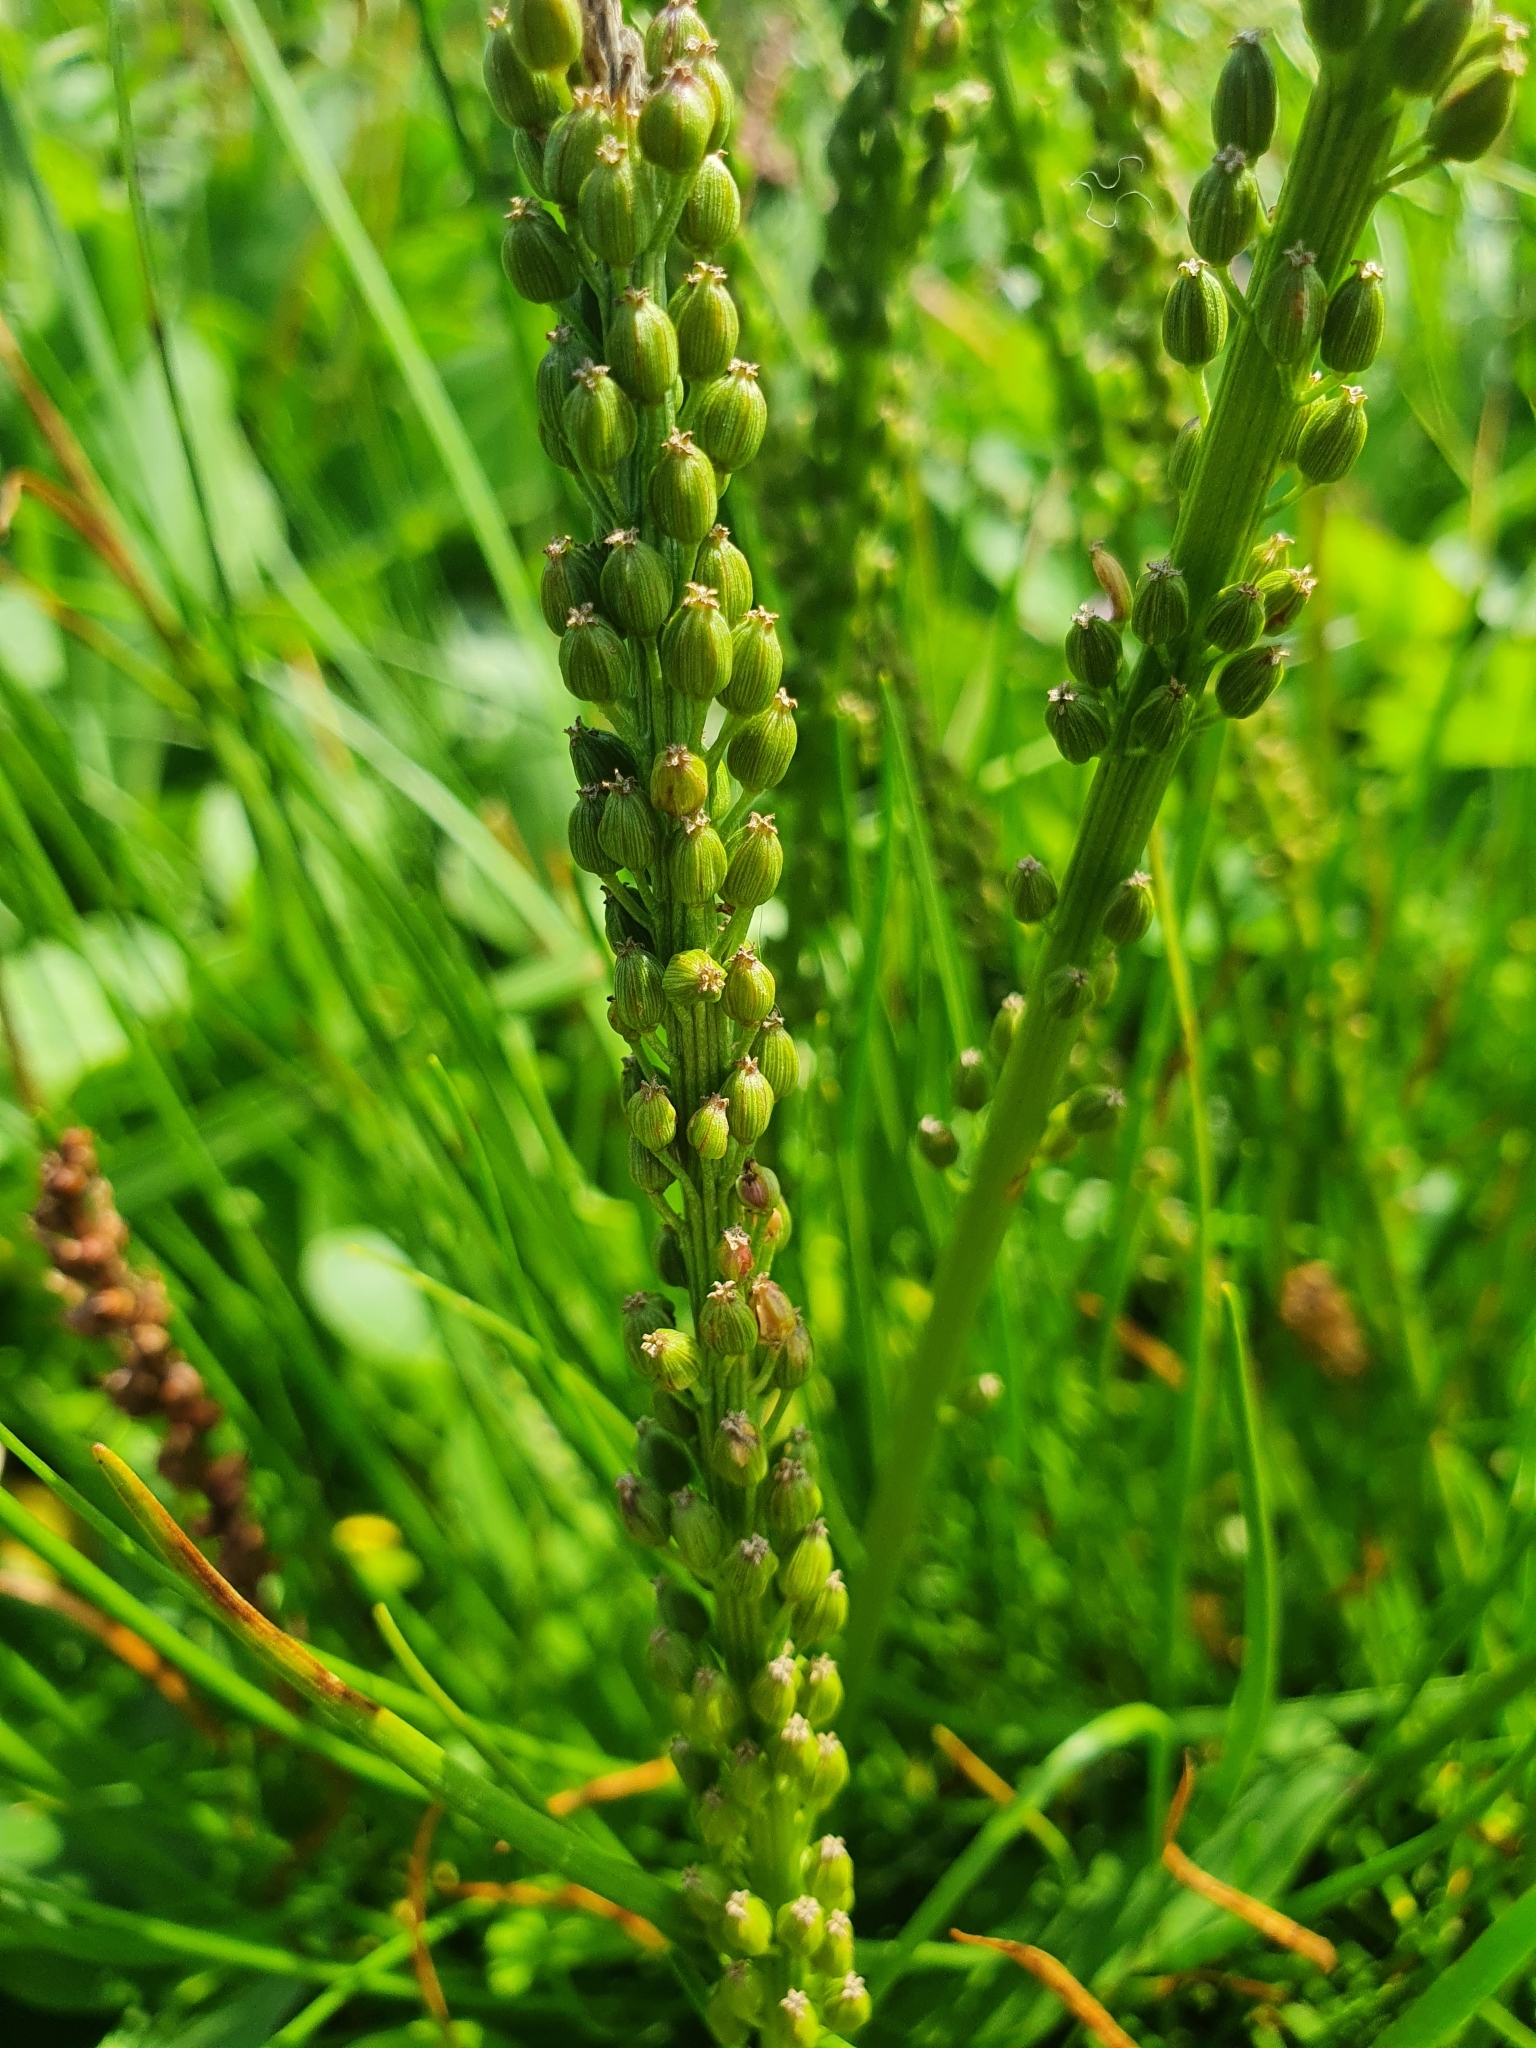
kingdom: Plantae
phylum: Tracheophyta
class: Liliopsida
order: Alismatales
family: Juncaginaceae
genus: Triglochin
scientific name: Triglochin maritima
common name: Sea arrowgrass
